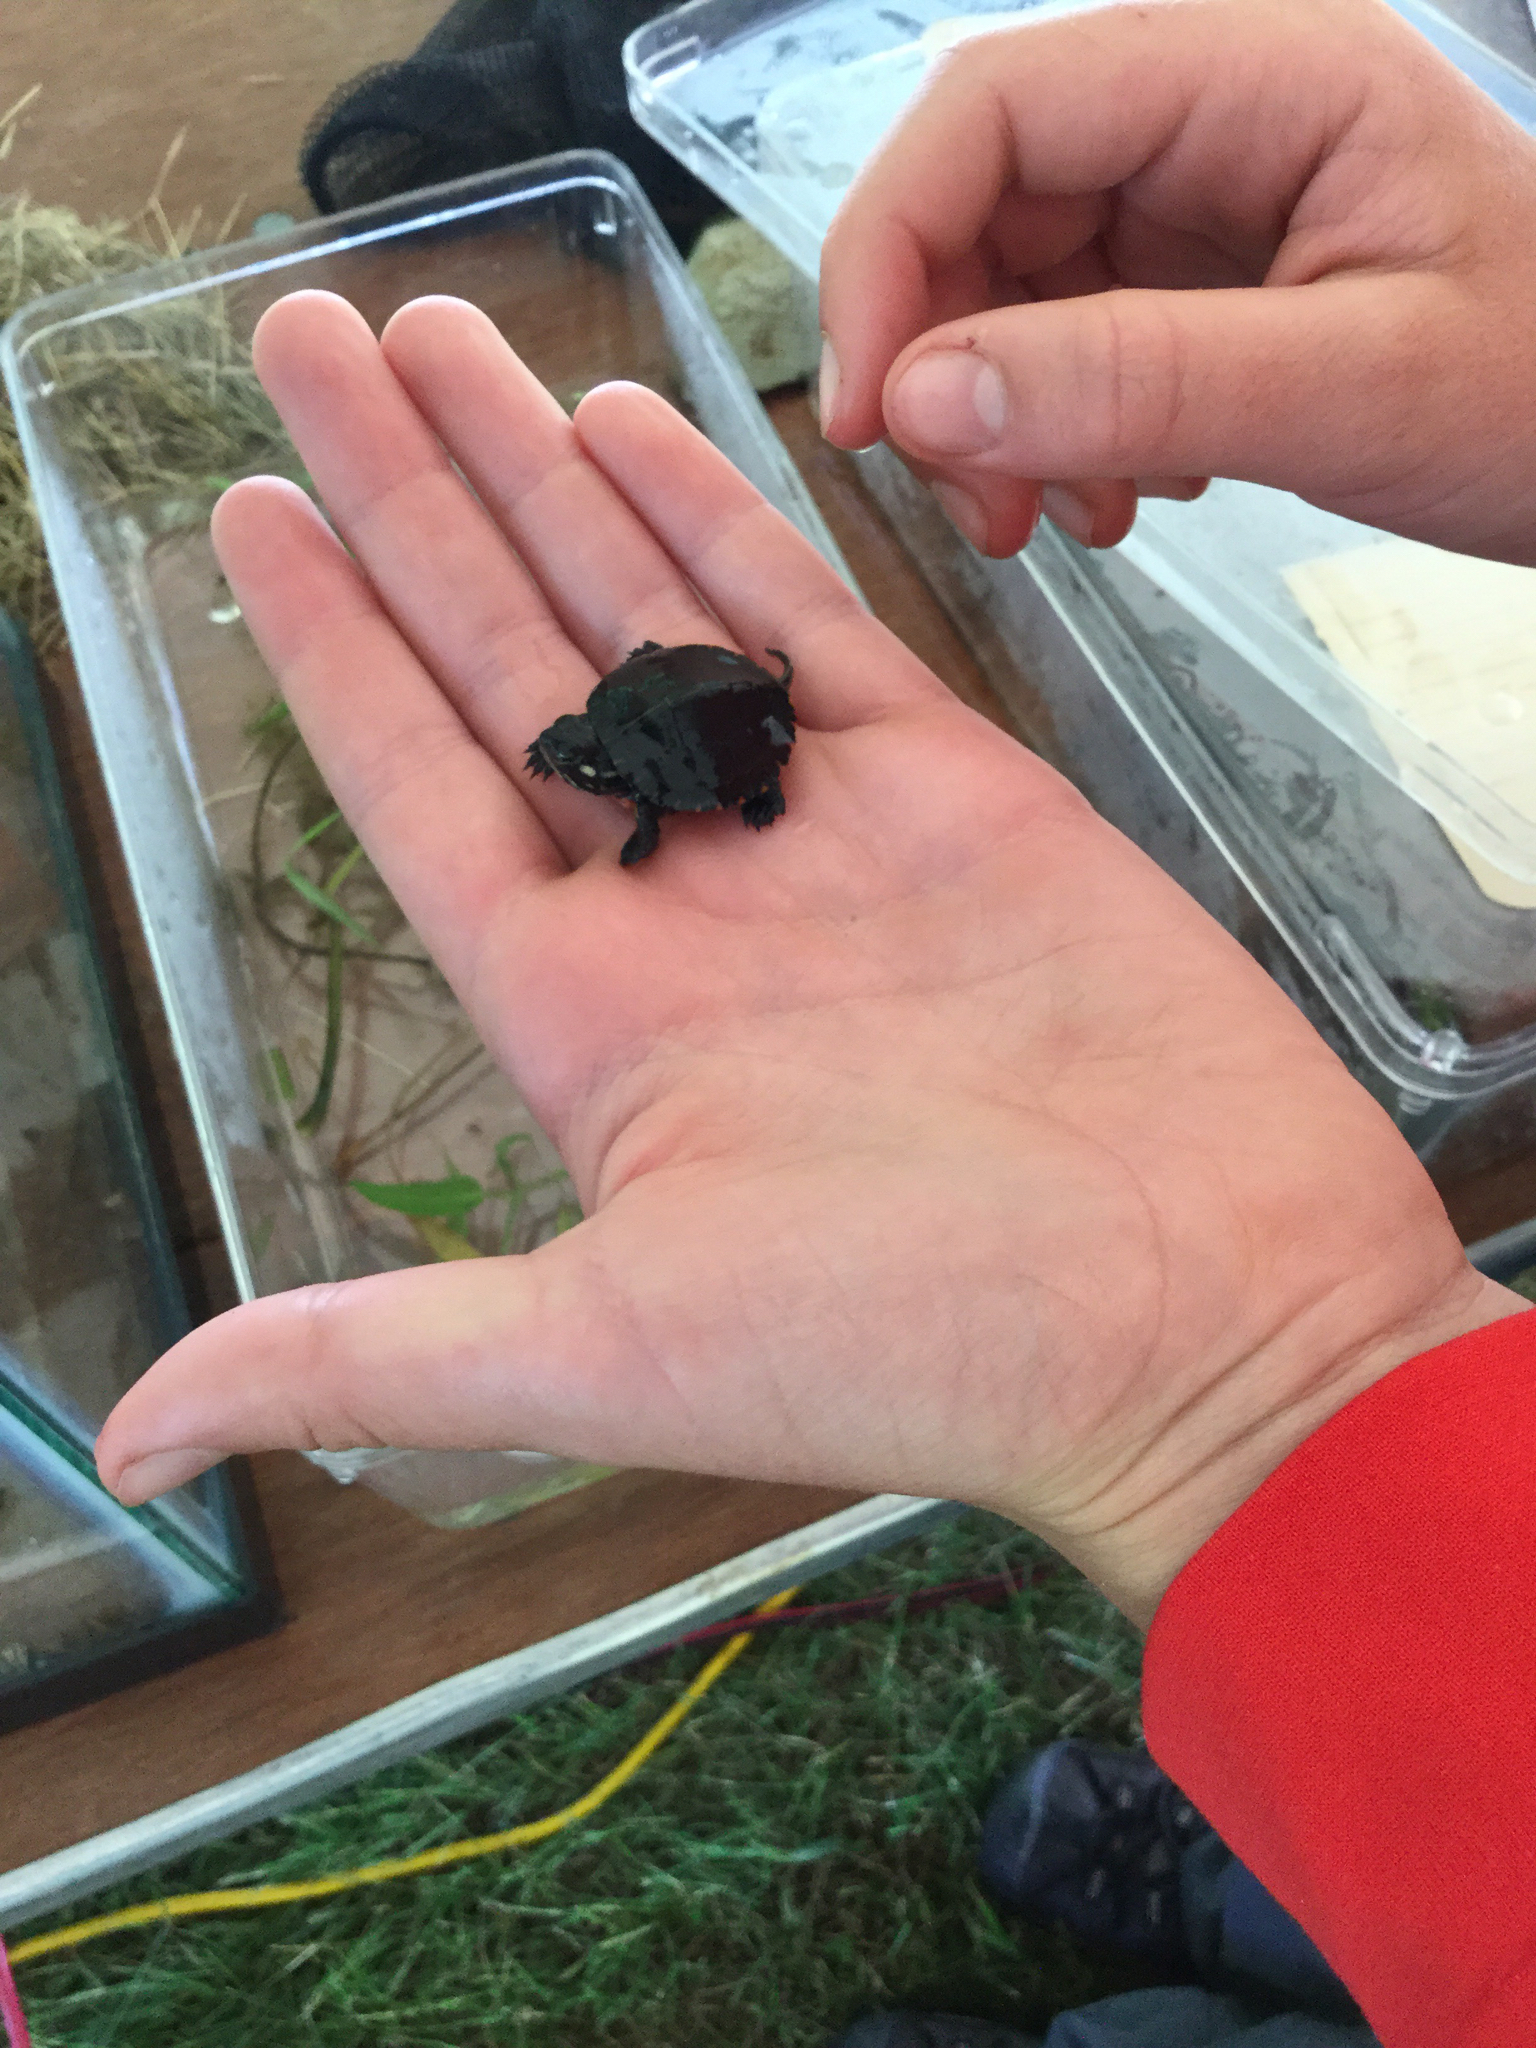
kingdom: Animalia
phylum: Chordata
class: Testudines
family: Emydidae
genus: Chrysemys
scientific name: Chrysemys picta
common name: Painted turtle
